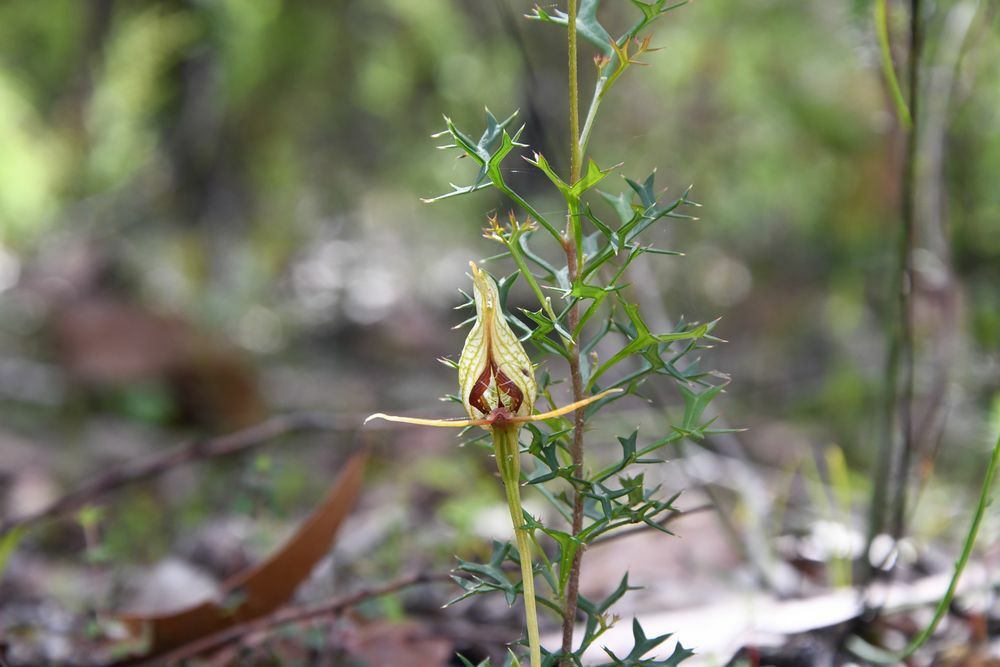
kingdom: Plantae
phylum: Tracheophyta
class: Liliopsida
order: Asparagales
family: Orchidaceae
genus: Pterostylis
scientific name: Pterostylis barbata
